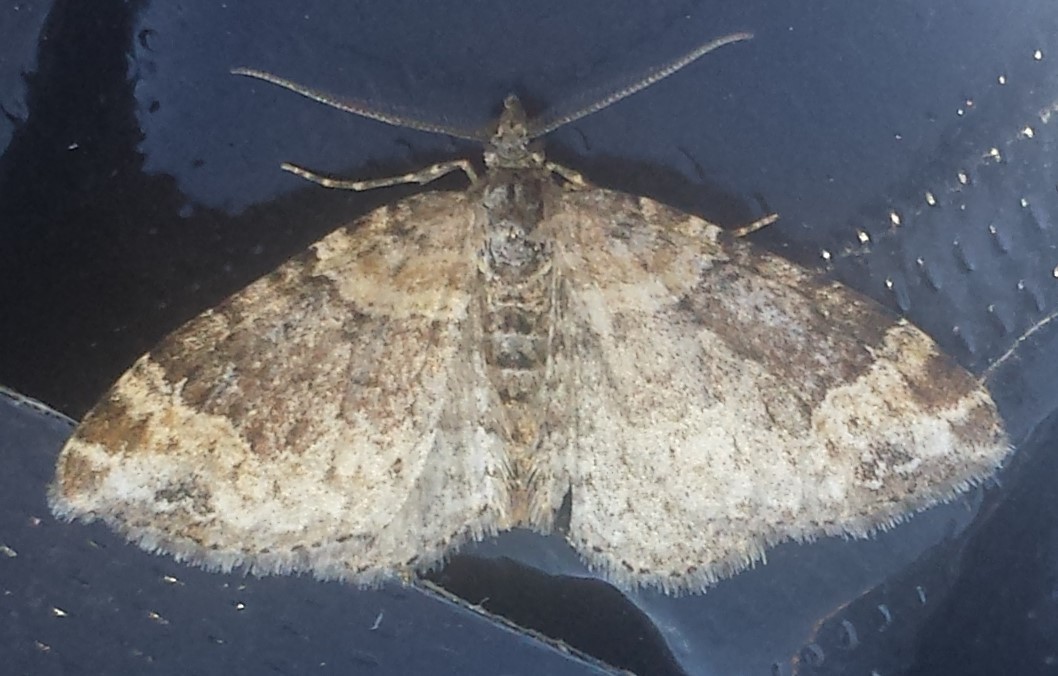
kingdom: Animalia
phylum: Arthropoda
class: Insecta
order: Lepidoptera
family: Geometridae
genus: Xanthorhoe
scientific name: Xanthorhoe ferrugata
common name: Dark-barred twin-spot carpet
